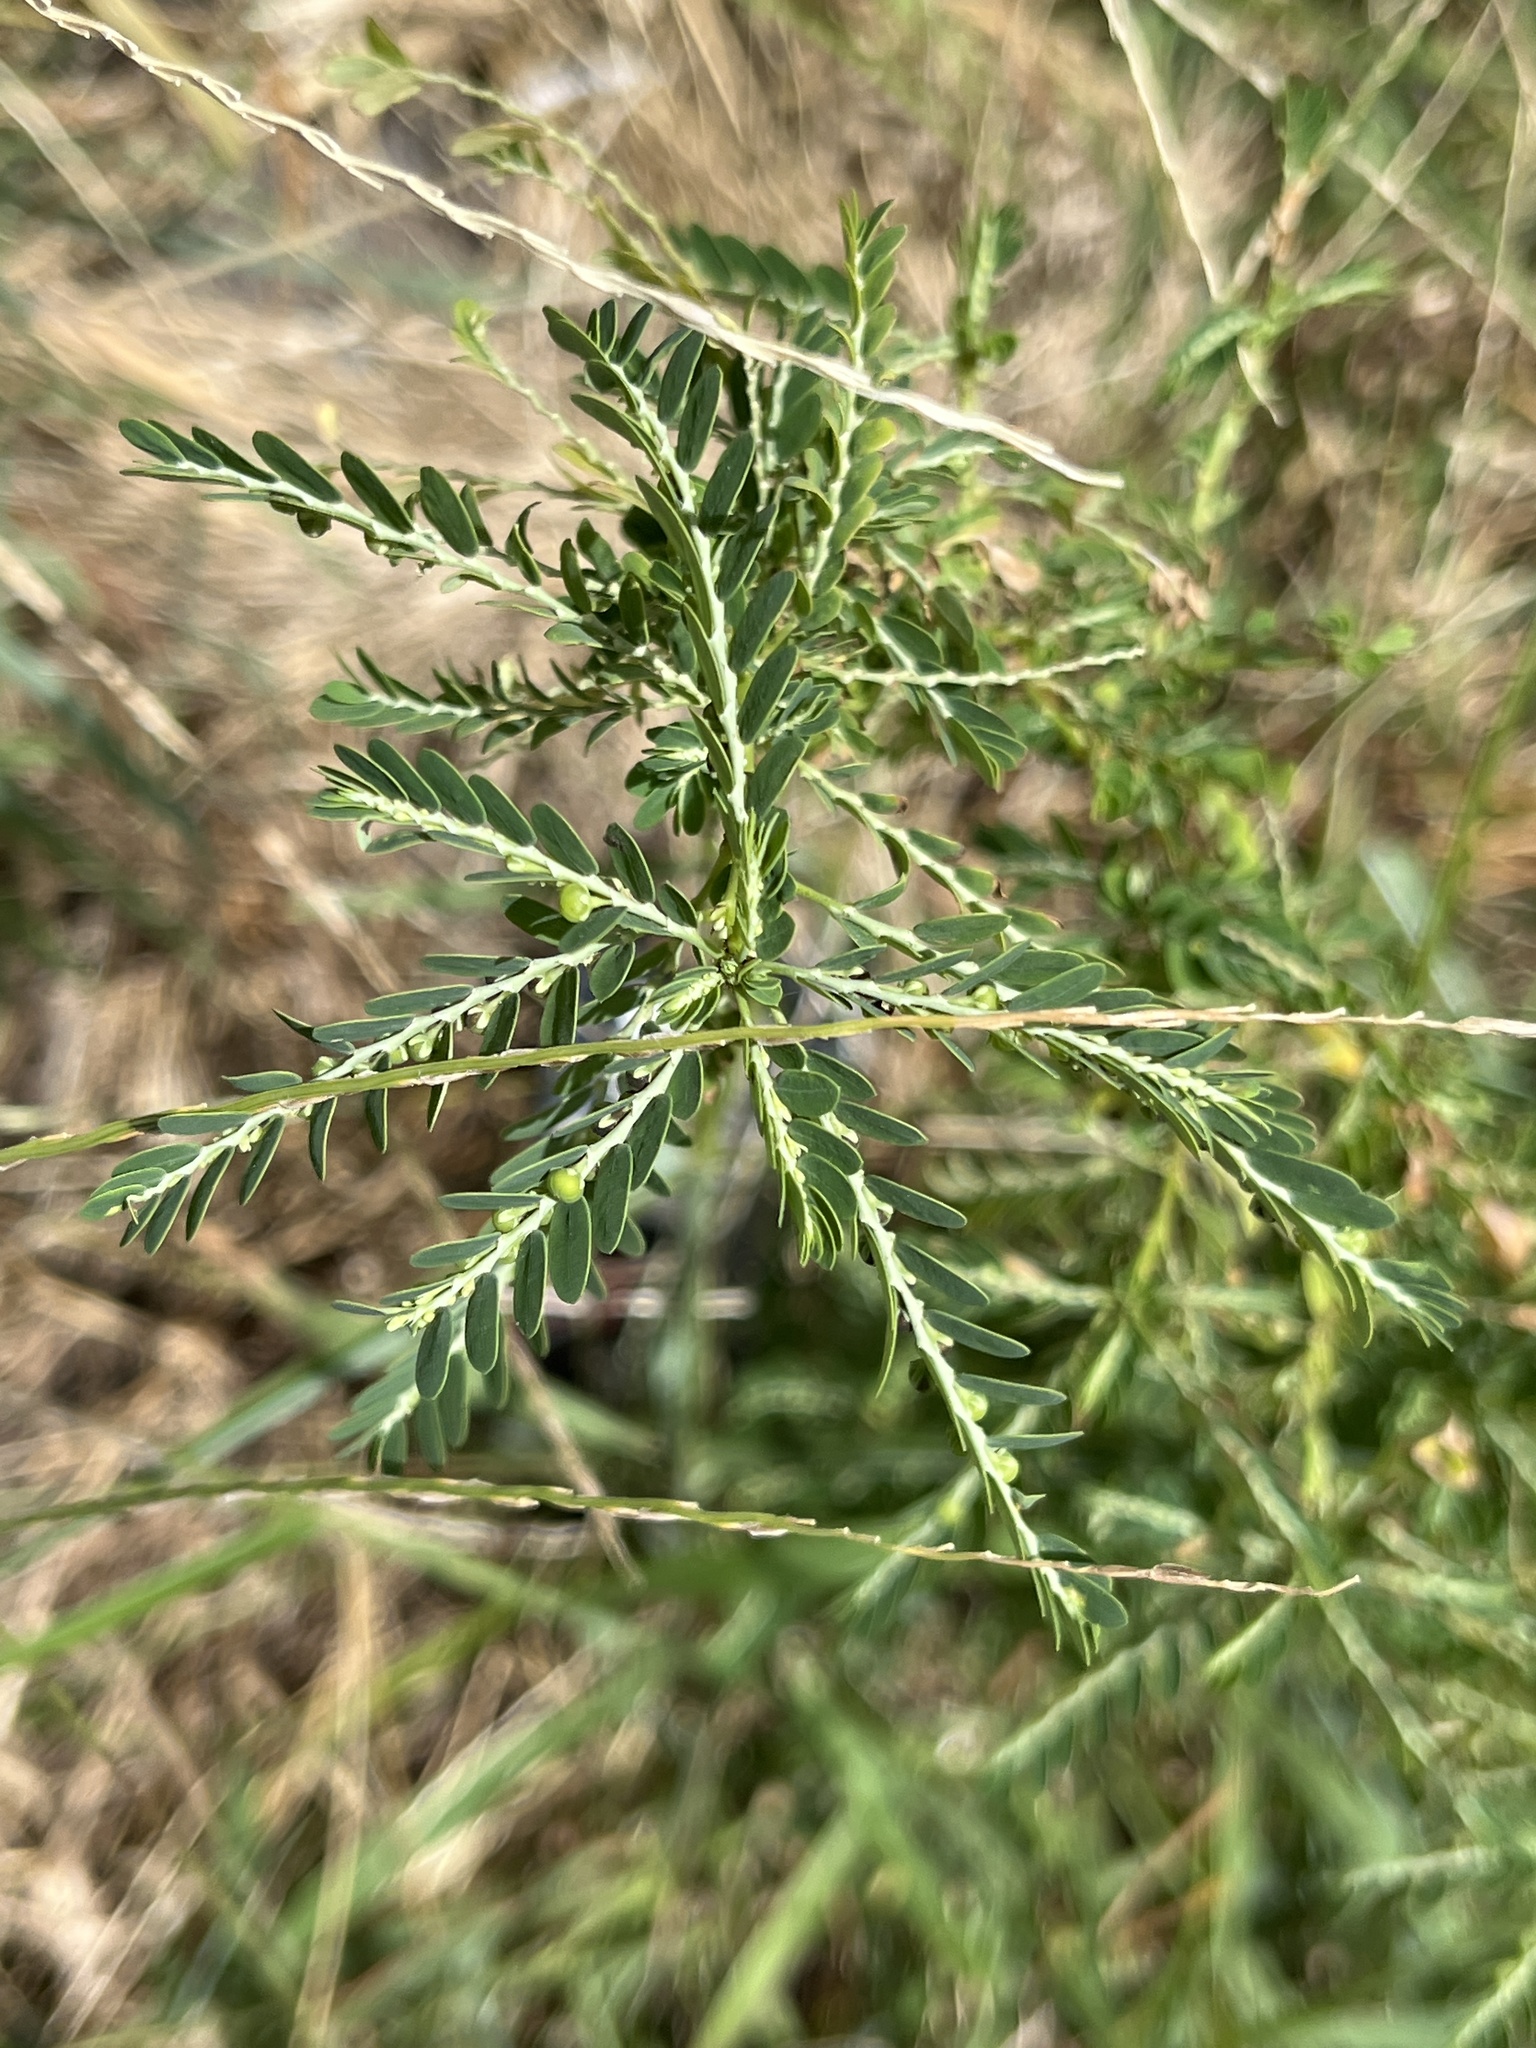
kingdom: Plantae
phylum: Tracheophyta
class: Magnoliopsida
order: Malpighiales
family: Phyllanthaceae
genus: Phyllanthus
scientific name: Phyllanthus amarus
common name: Carry me seed
